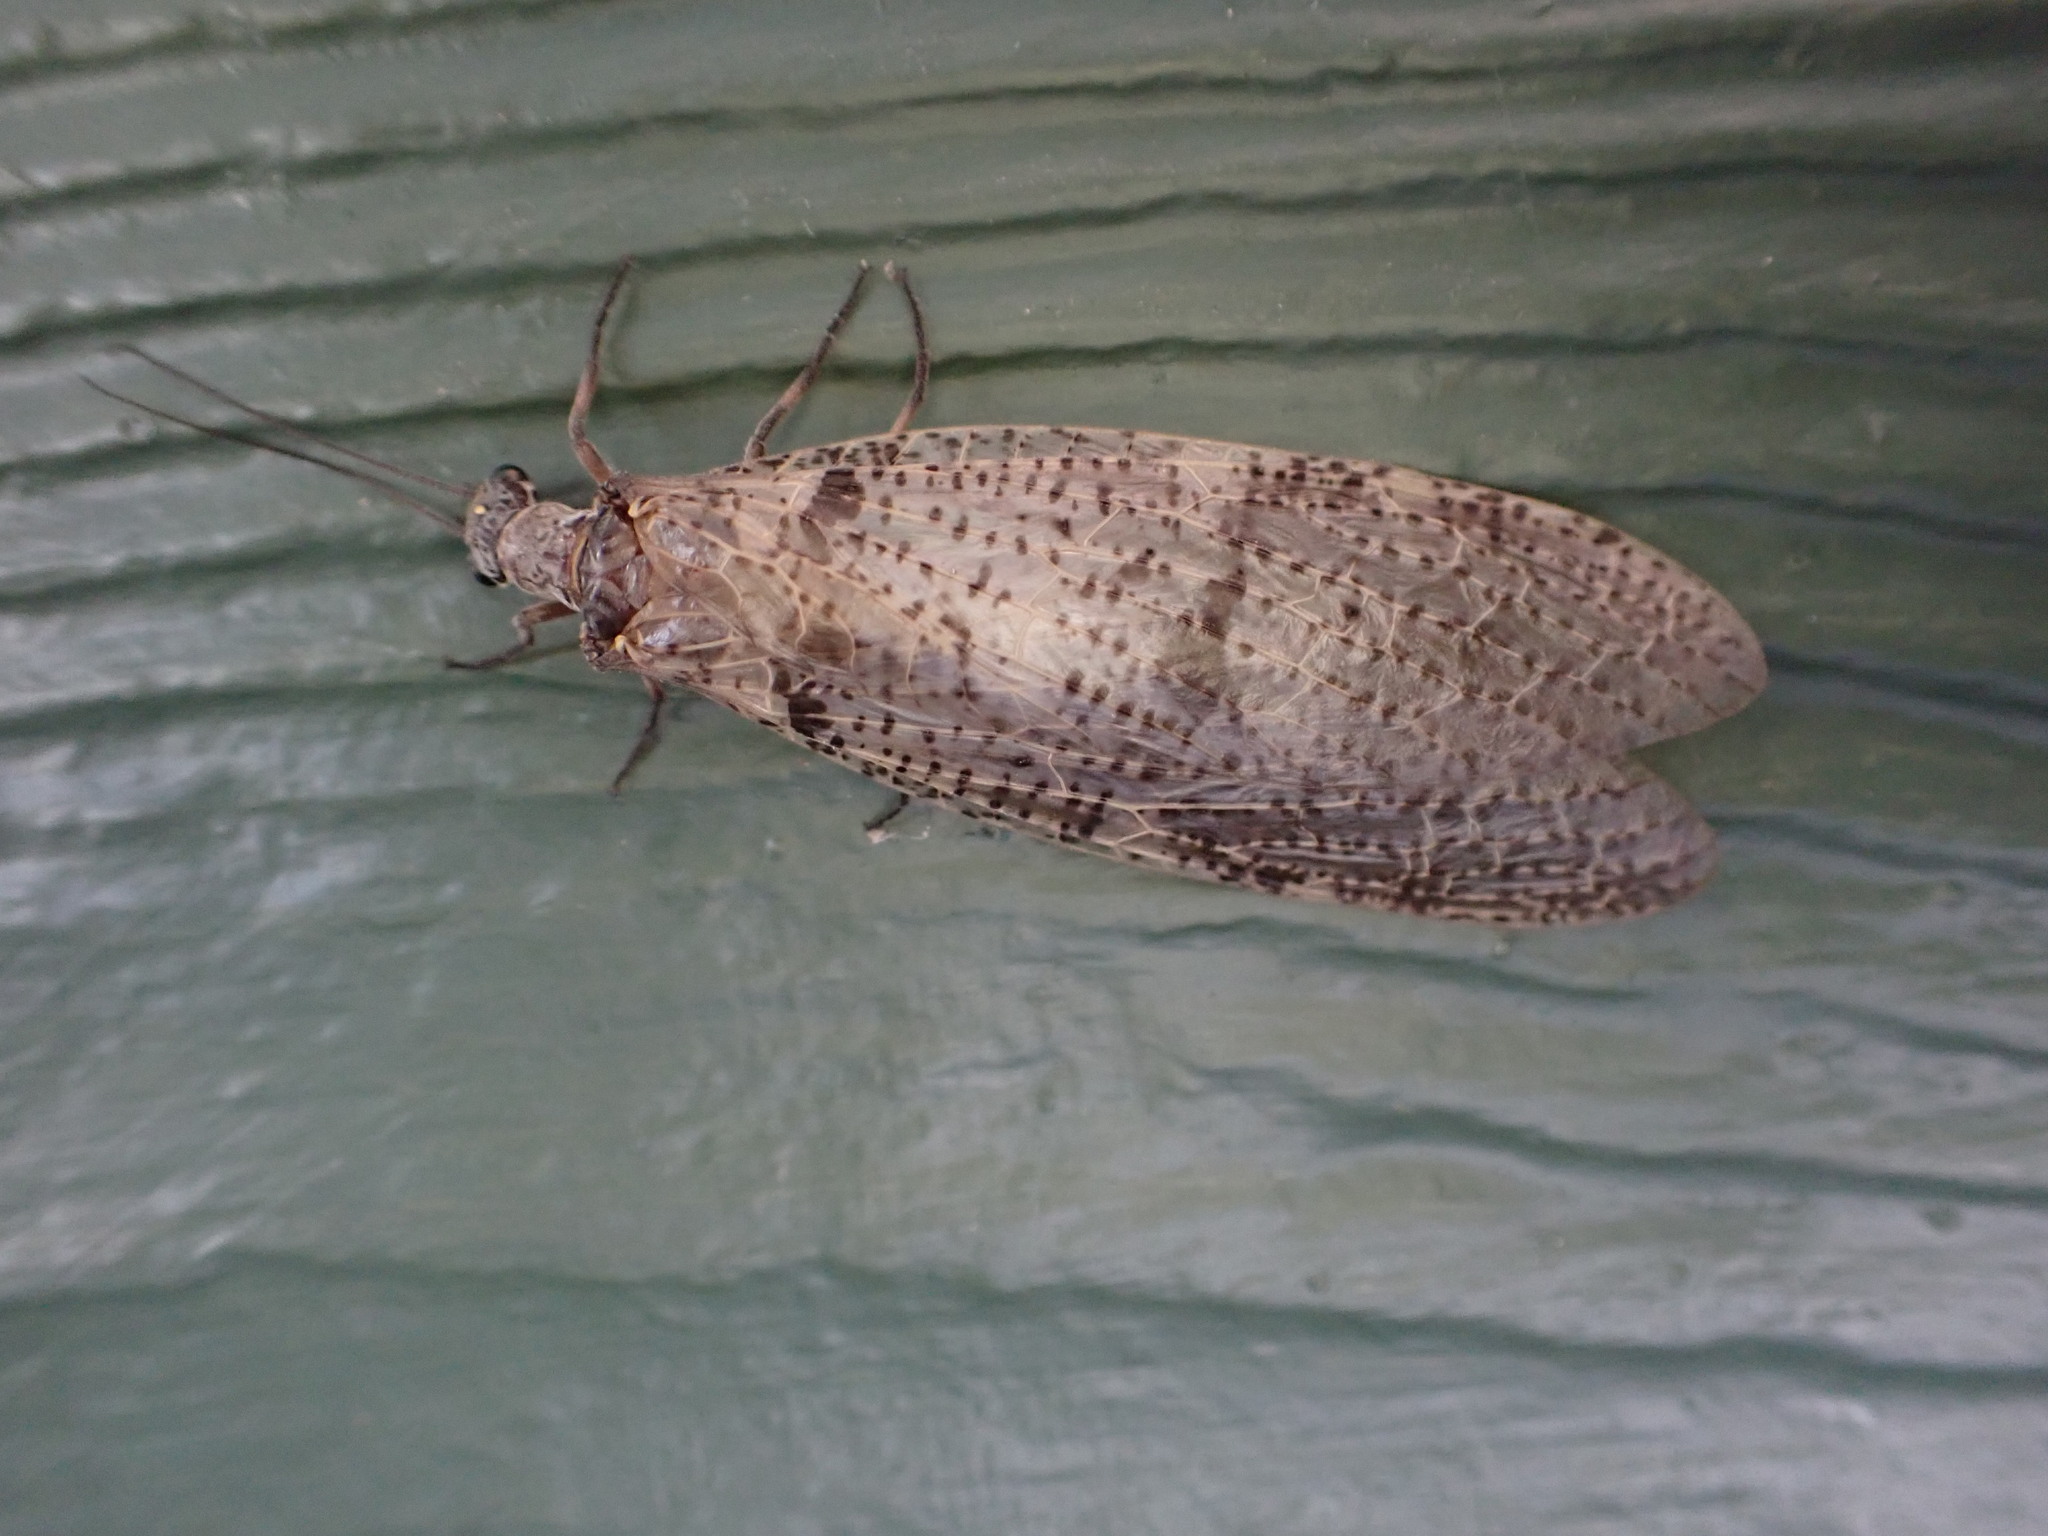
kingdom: Animalia
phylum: Arthropoda
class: Insecta
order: Megaloptera
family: Corydalidae
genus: Archichauliodes
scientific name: Archichauliodes diversus
